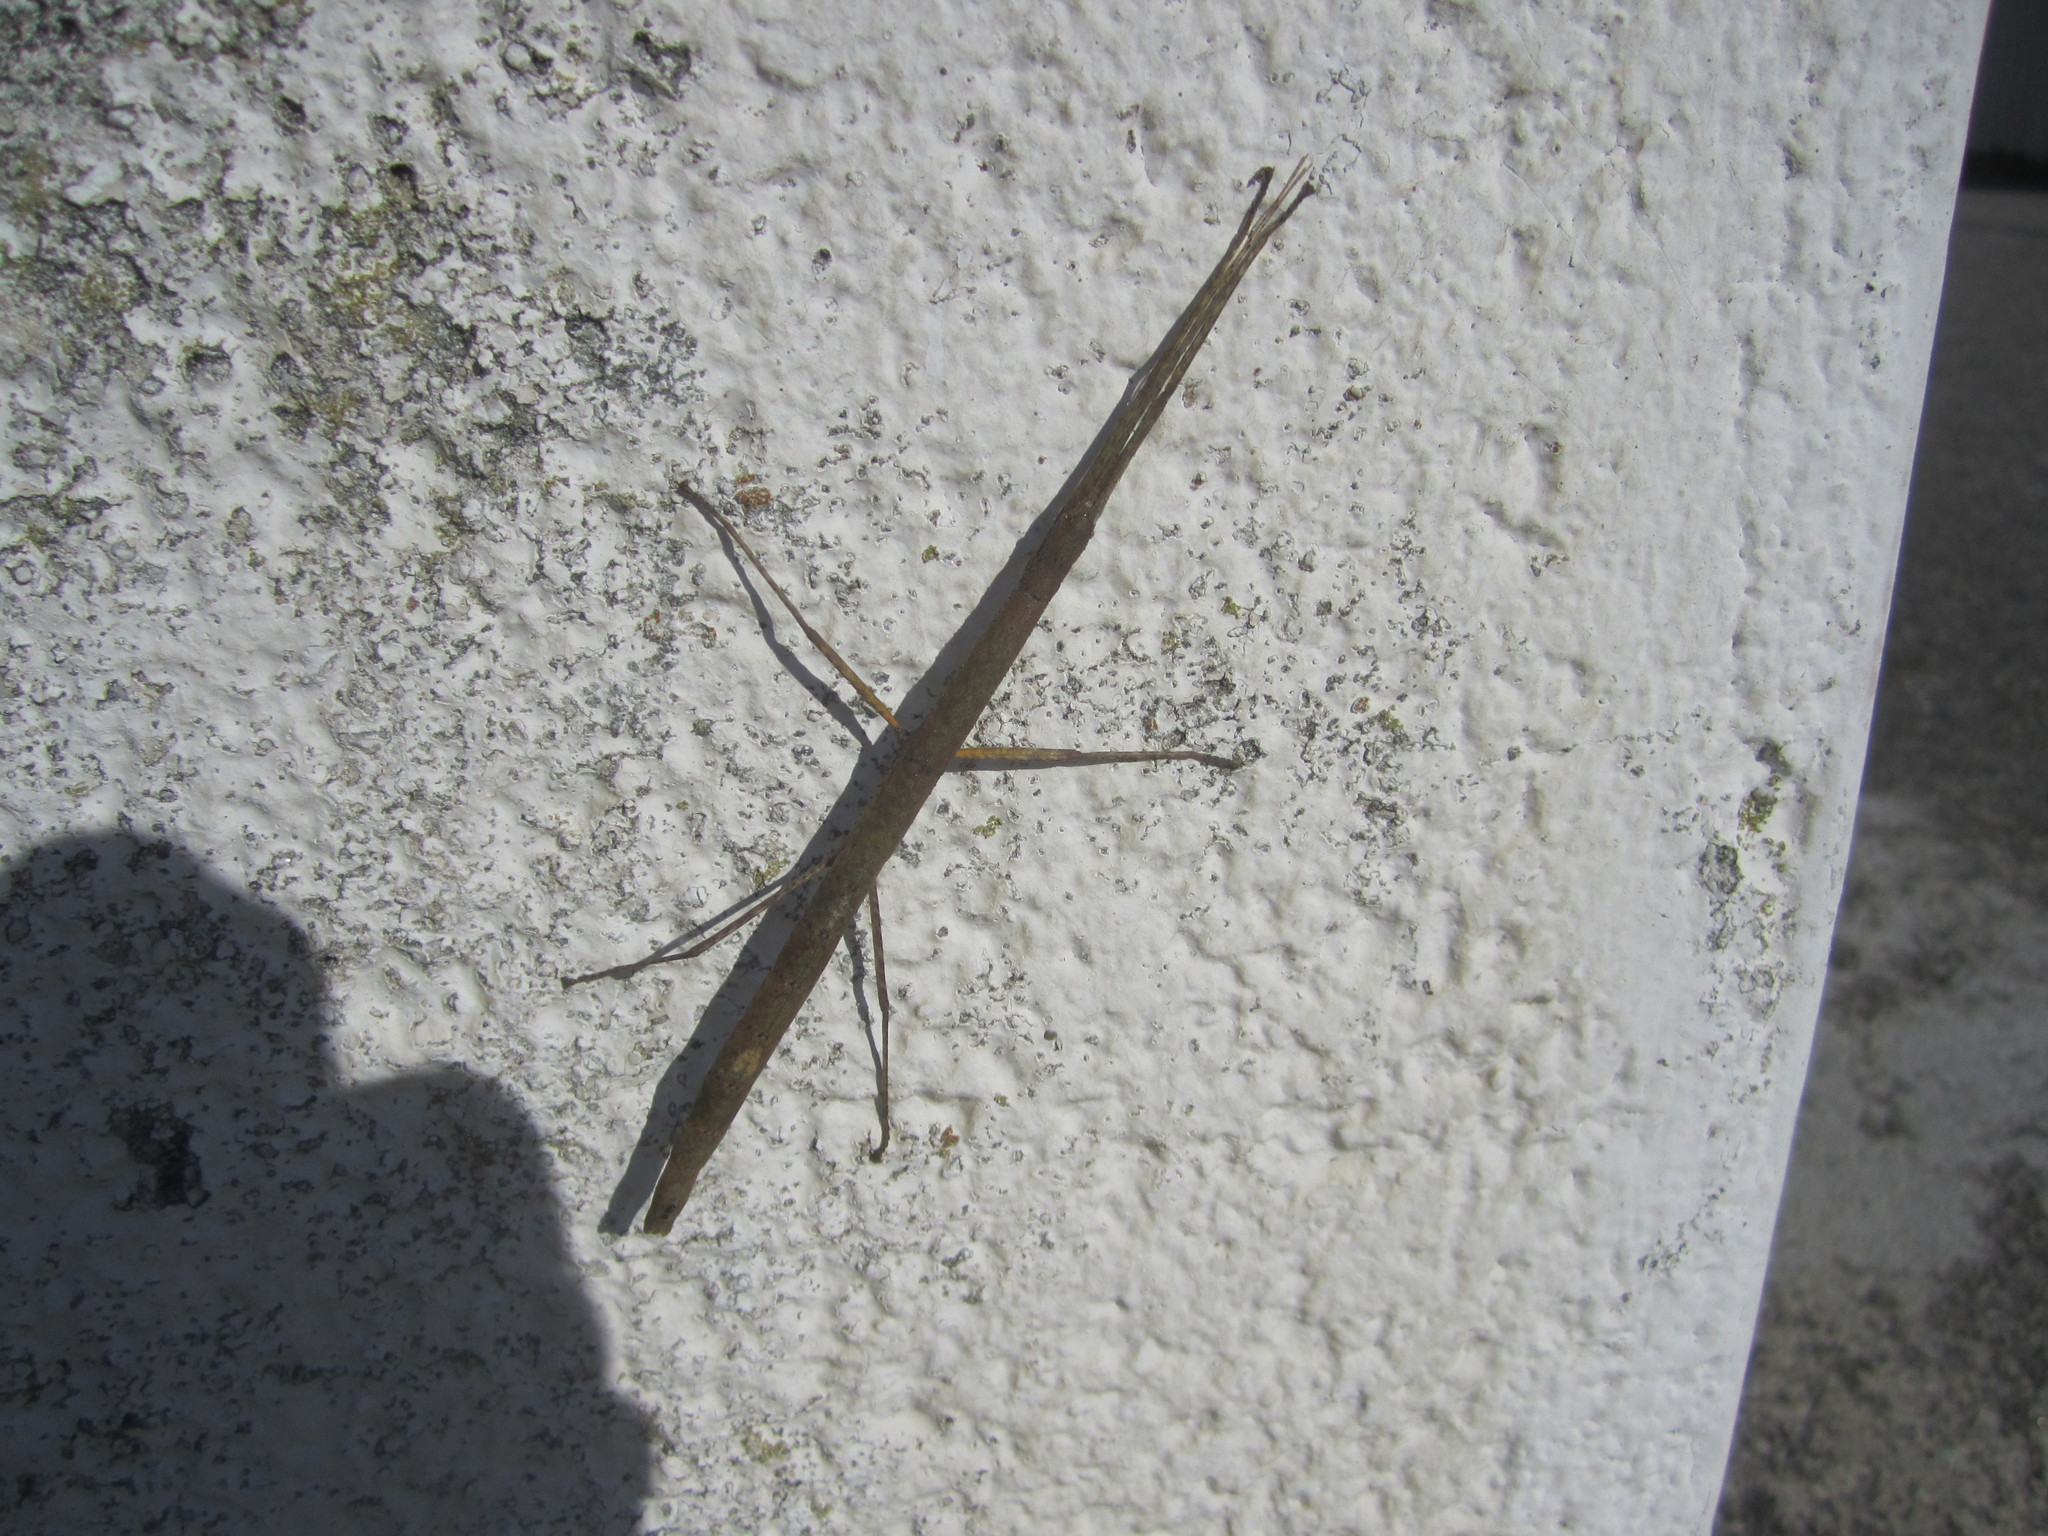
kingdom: Animalia
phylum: Arthropoda
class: Insecta
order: Phasmida
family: Lonchodidae
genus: Carausius
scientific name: Carausius morosus
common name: Indian stick insect
